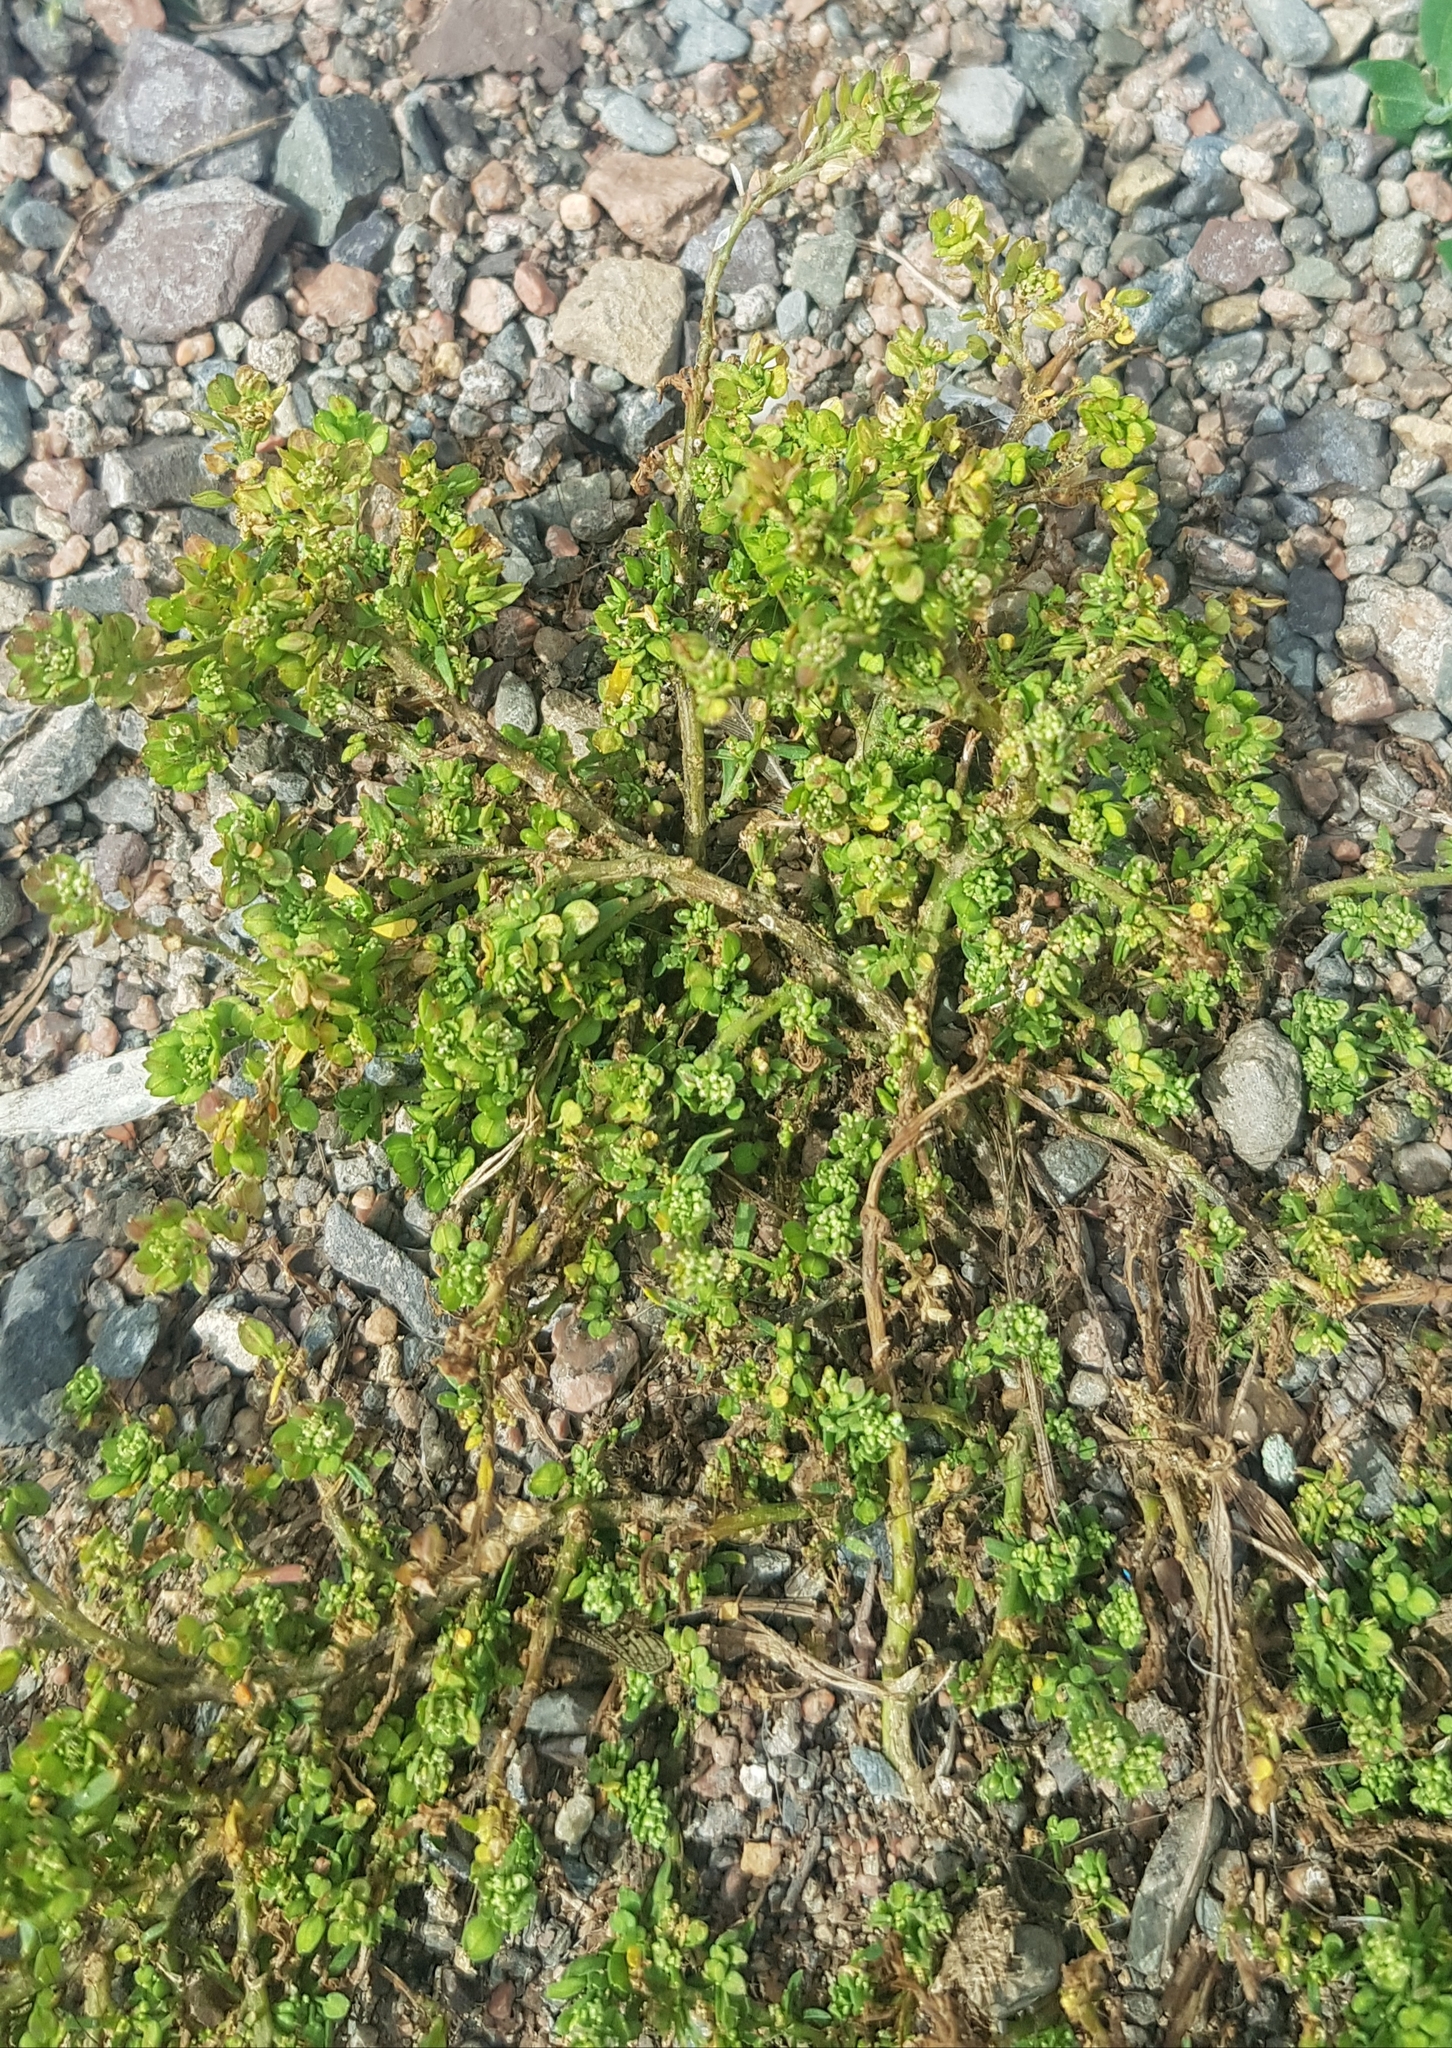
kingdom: Plantae
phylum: Tracheophyta
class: Magnoliopsida
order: Caryophyllales
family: Caryophyllaceae
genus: Herniaria
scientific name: Herniaria glabra
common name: Smooth rupturewort
